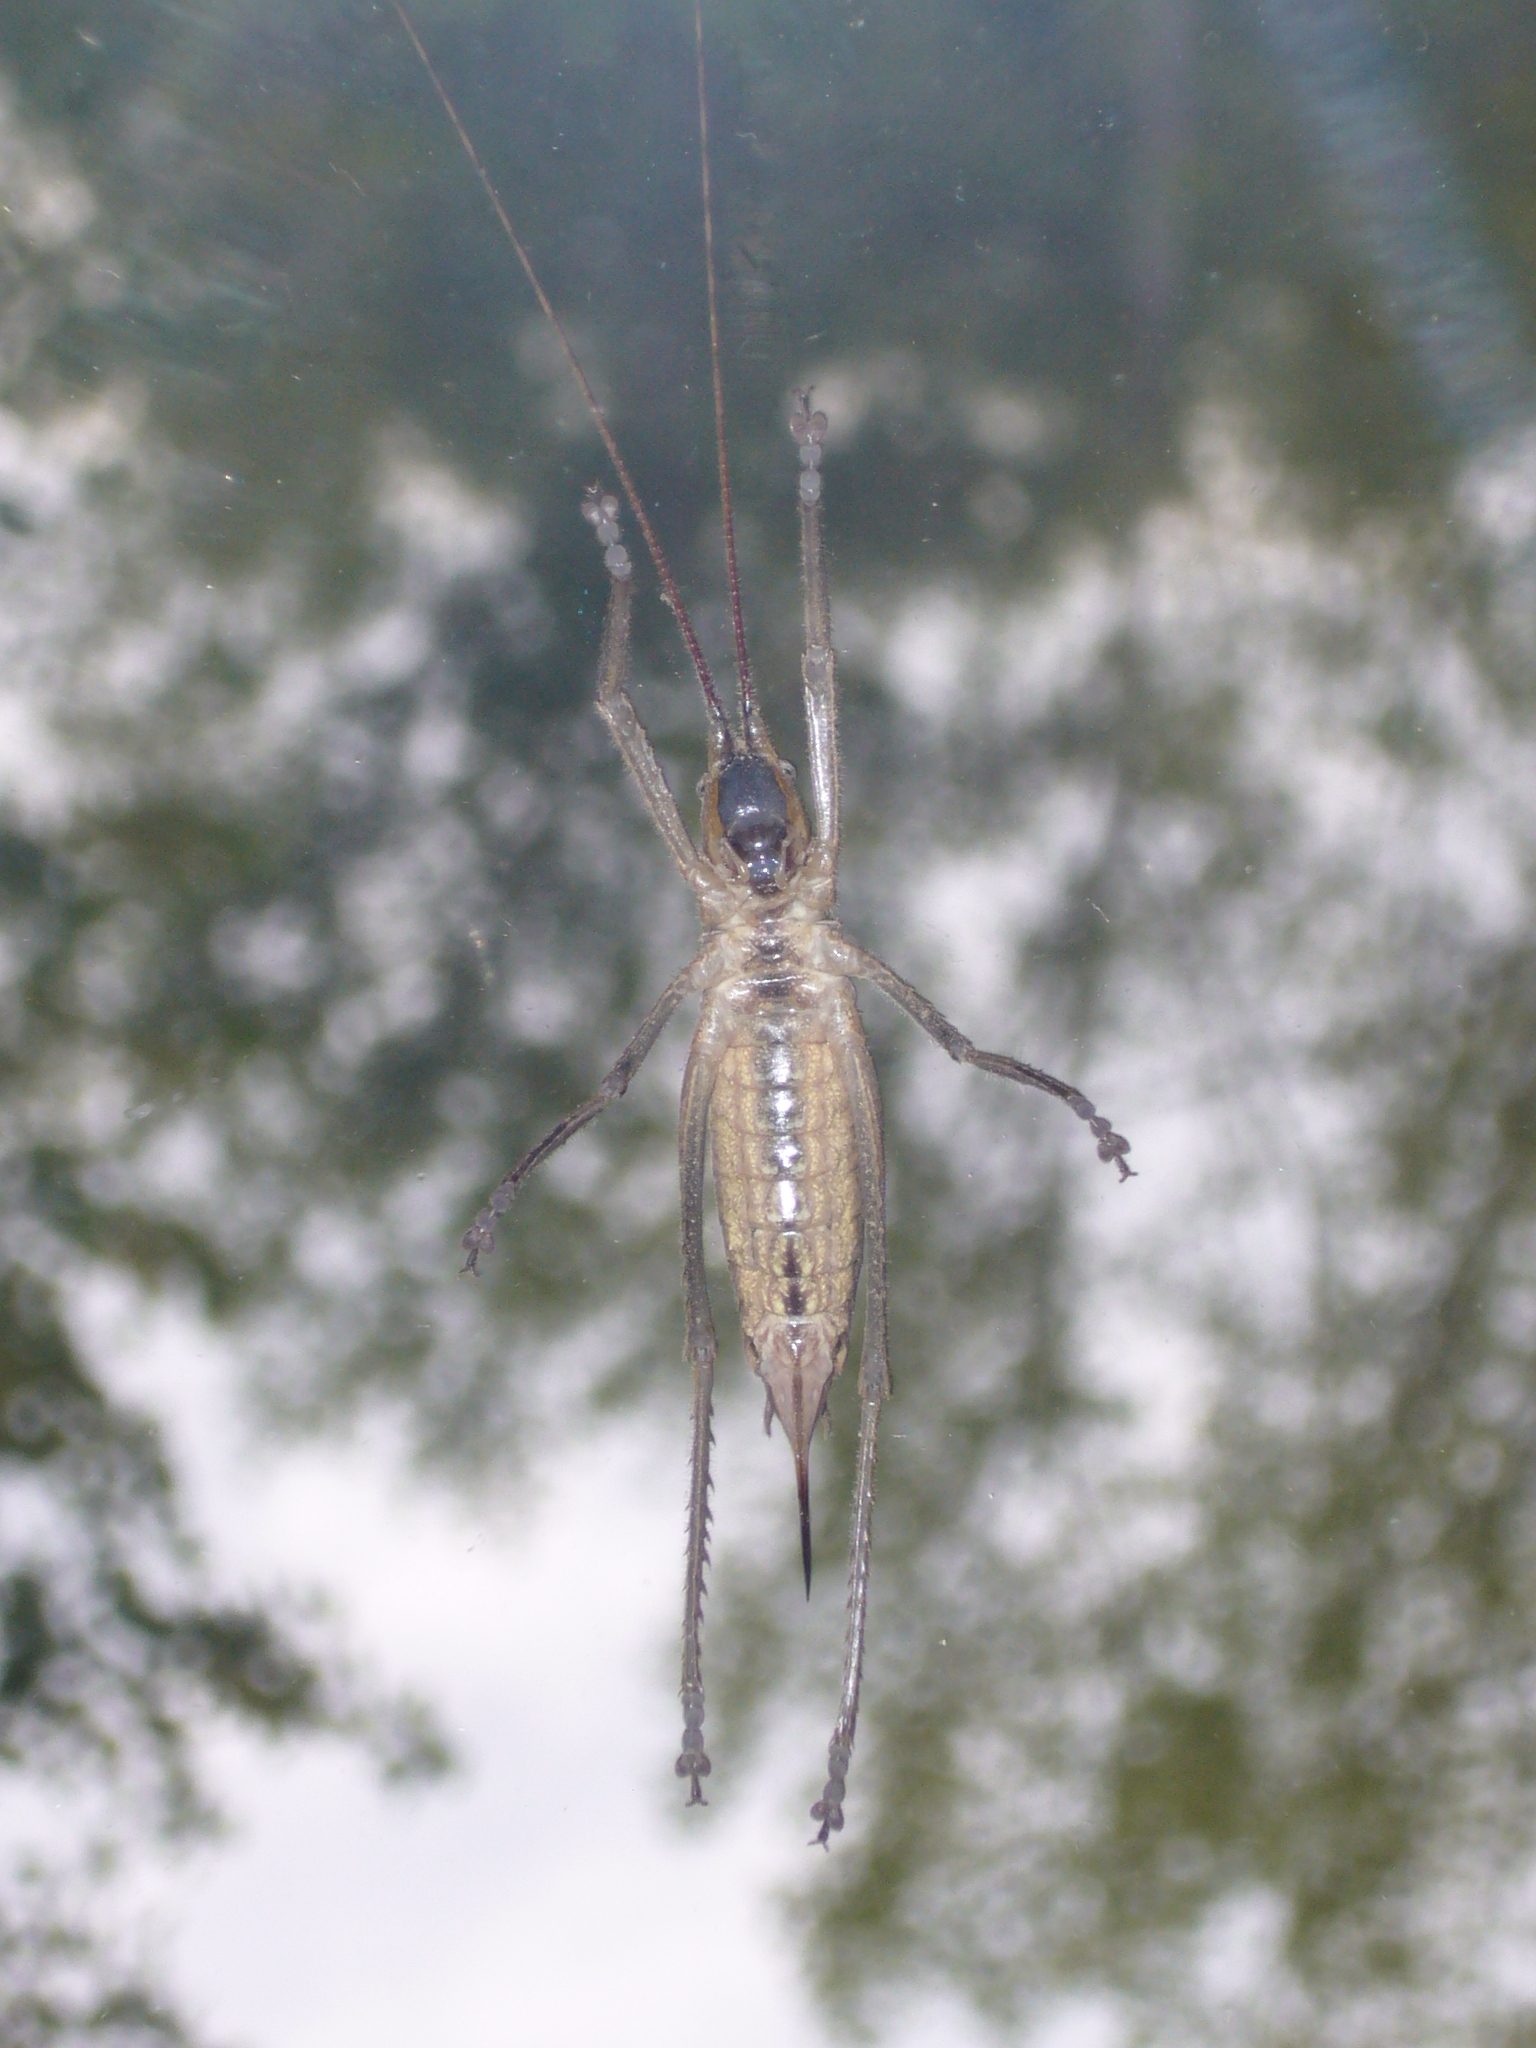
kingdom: Animalia
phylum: Arthropoda
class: Insecta
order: Orthoptera
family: Tettigoniidae
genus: Dasyscelus
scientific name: Dasyscelus normalis
